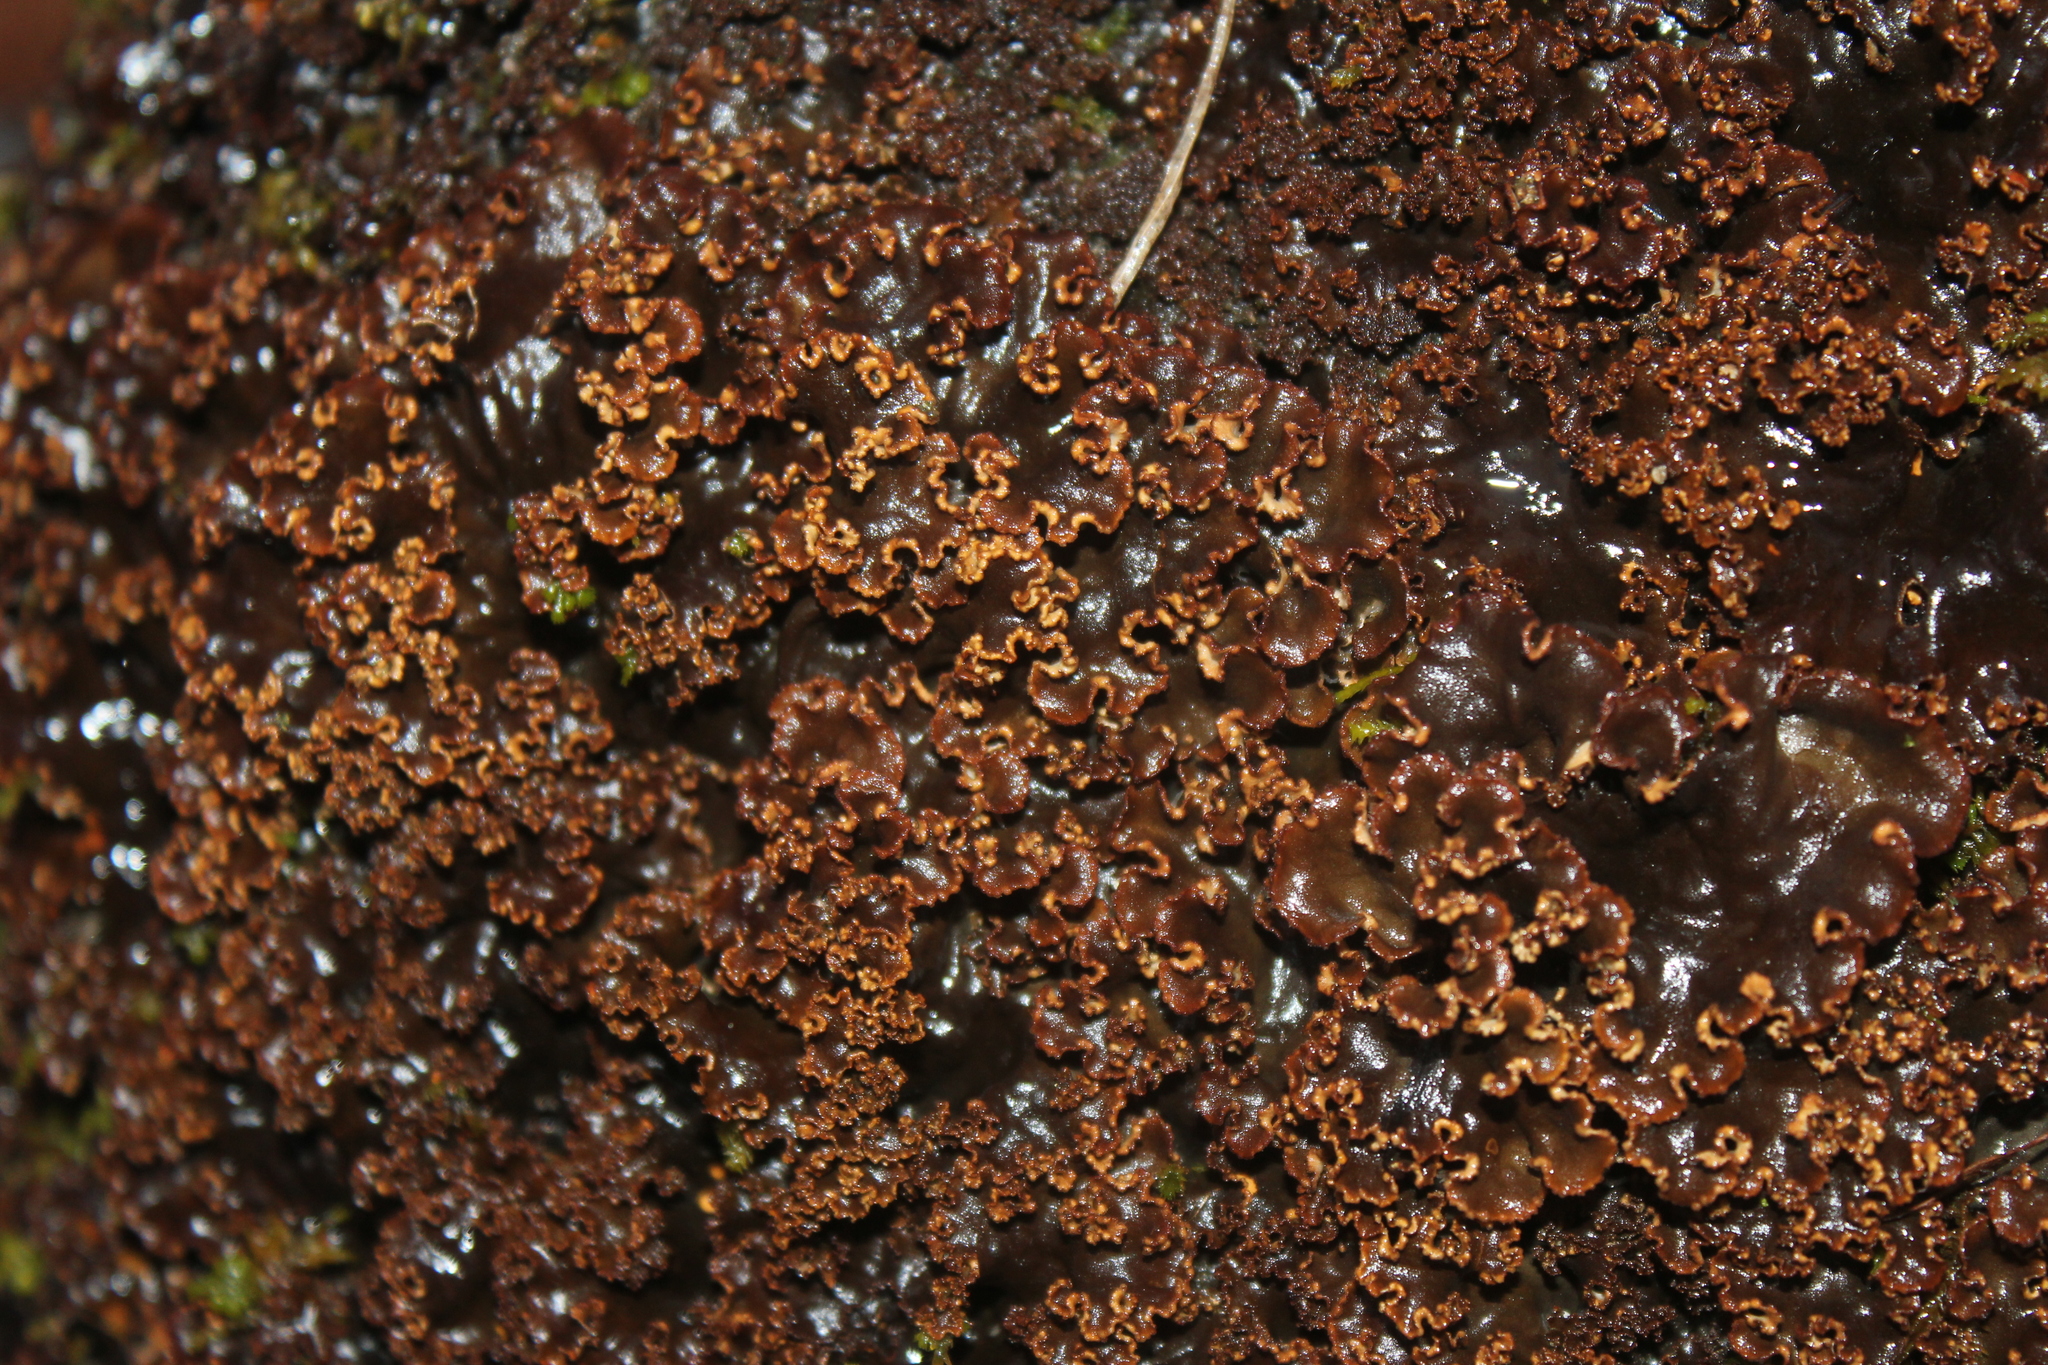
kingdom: Fungi
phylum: Ascomycota
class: Lecanoromycetes
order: Peltigerales
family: Peltigeraceae
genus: Peltigera
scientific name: Peltigera praetextata
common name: Scaly dog-lichen
